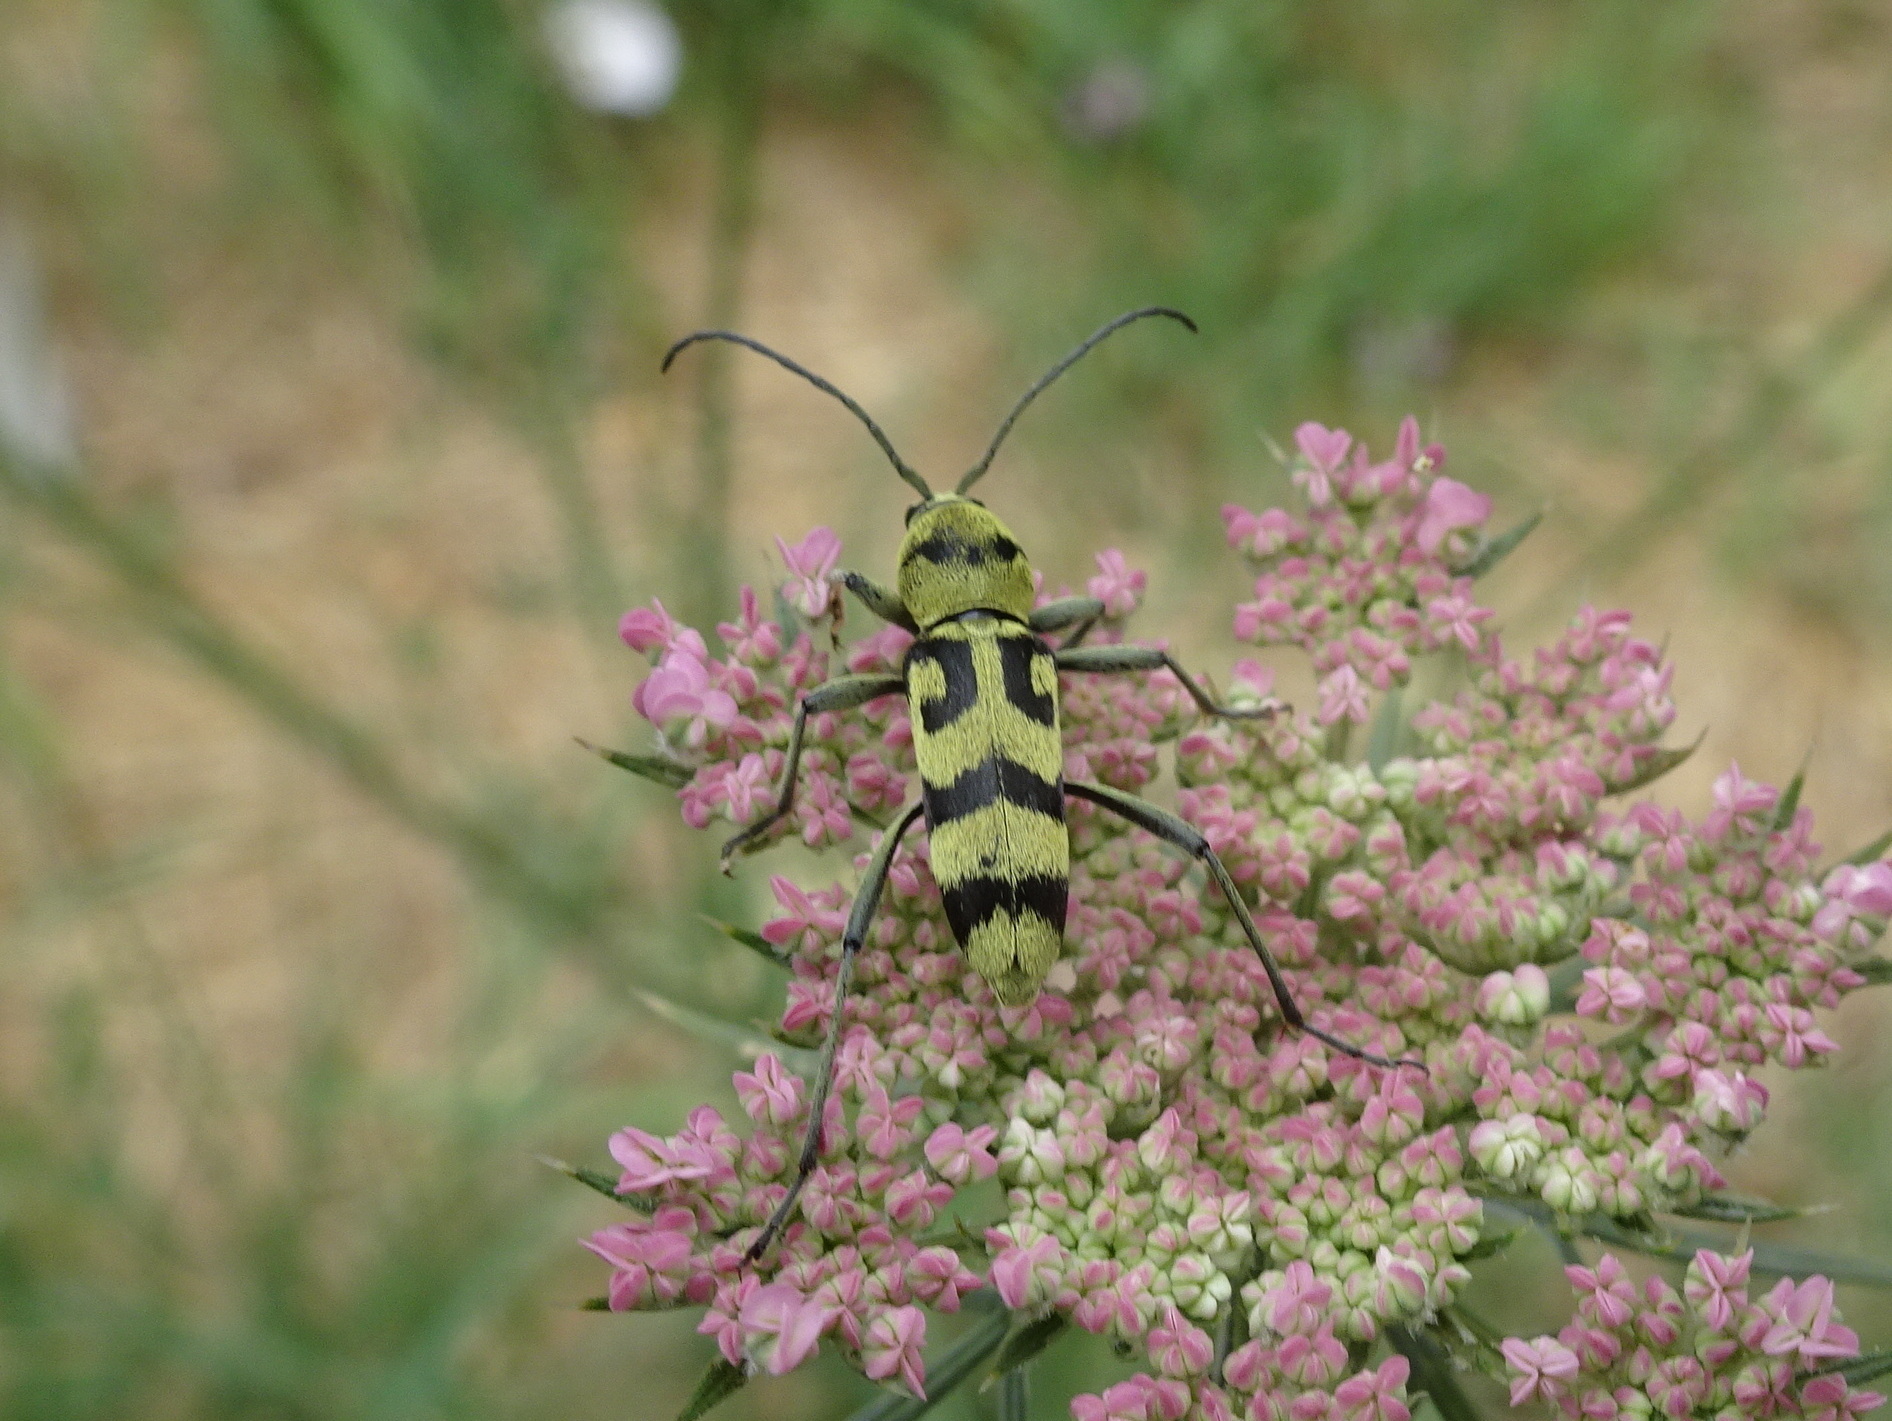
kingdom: Animalia
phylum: Arthropoda
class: Insecta
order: Coleoptera
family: Cerambycidae
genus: Chlorophorus
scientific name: Chlorophorus varius
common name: Grape wood borer
